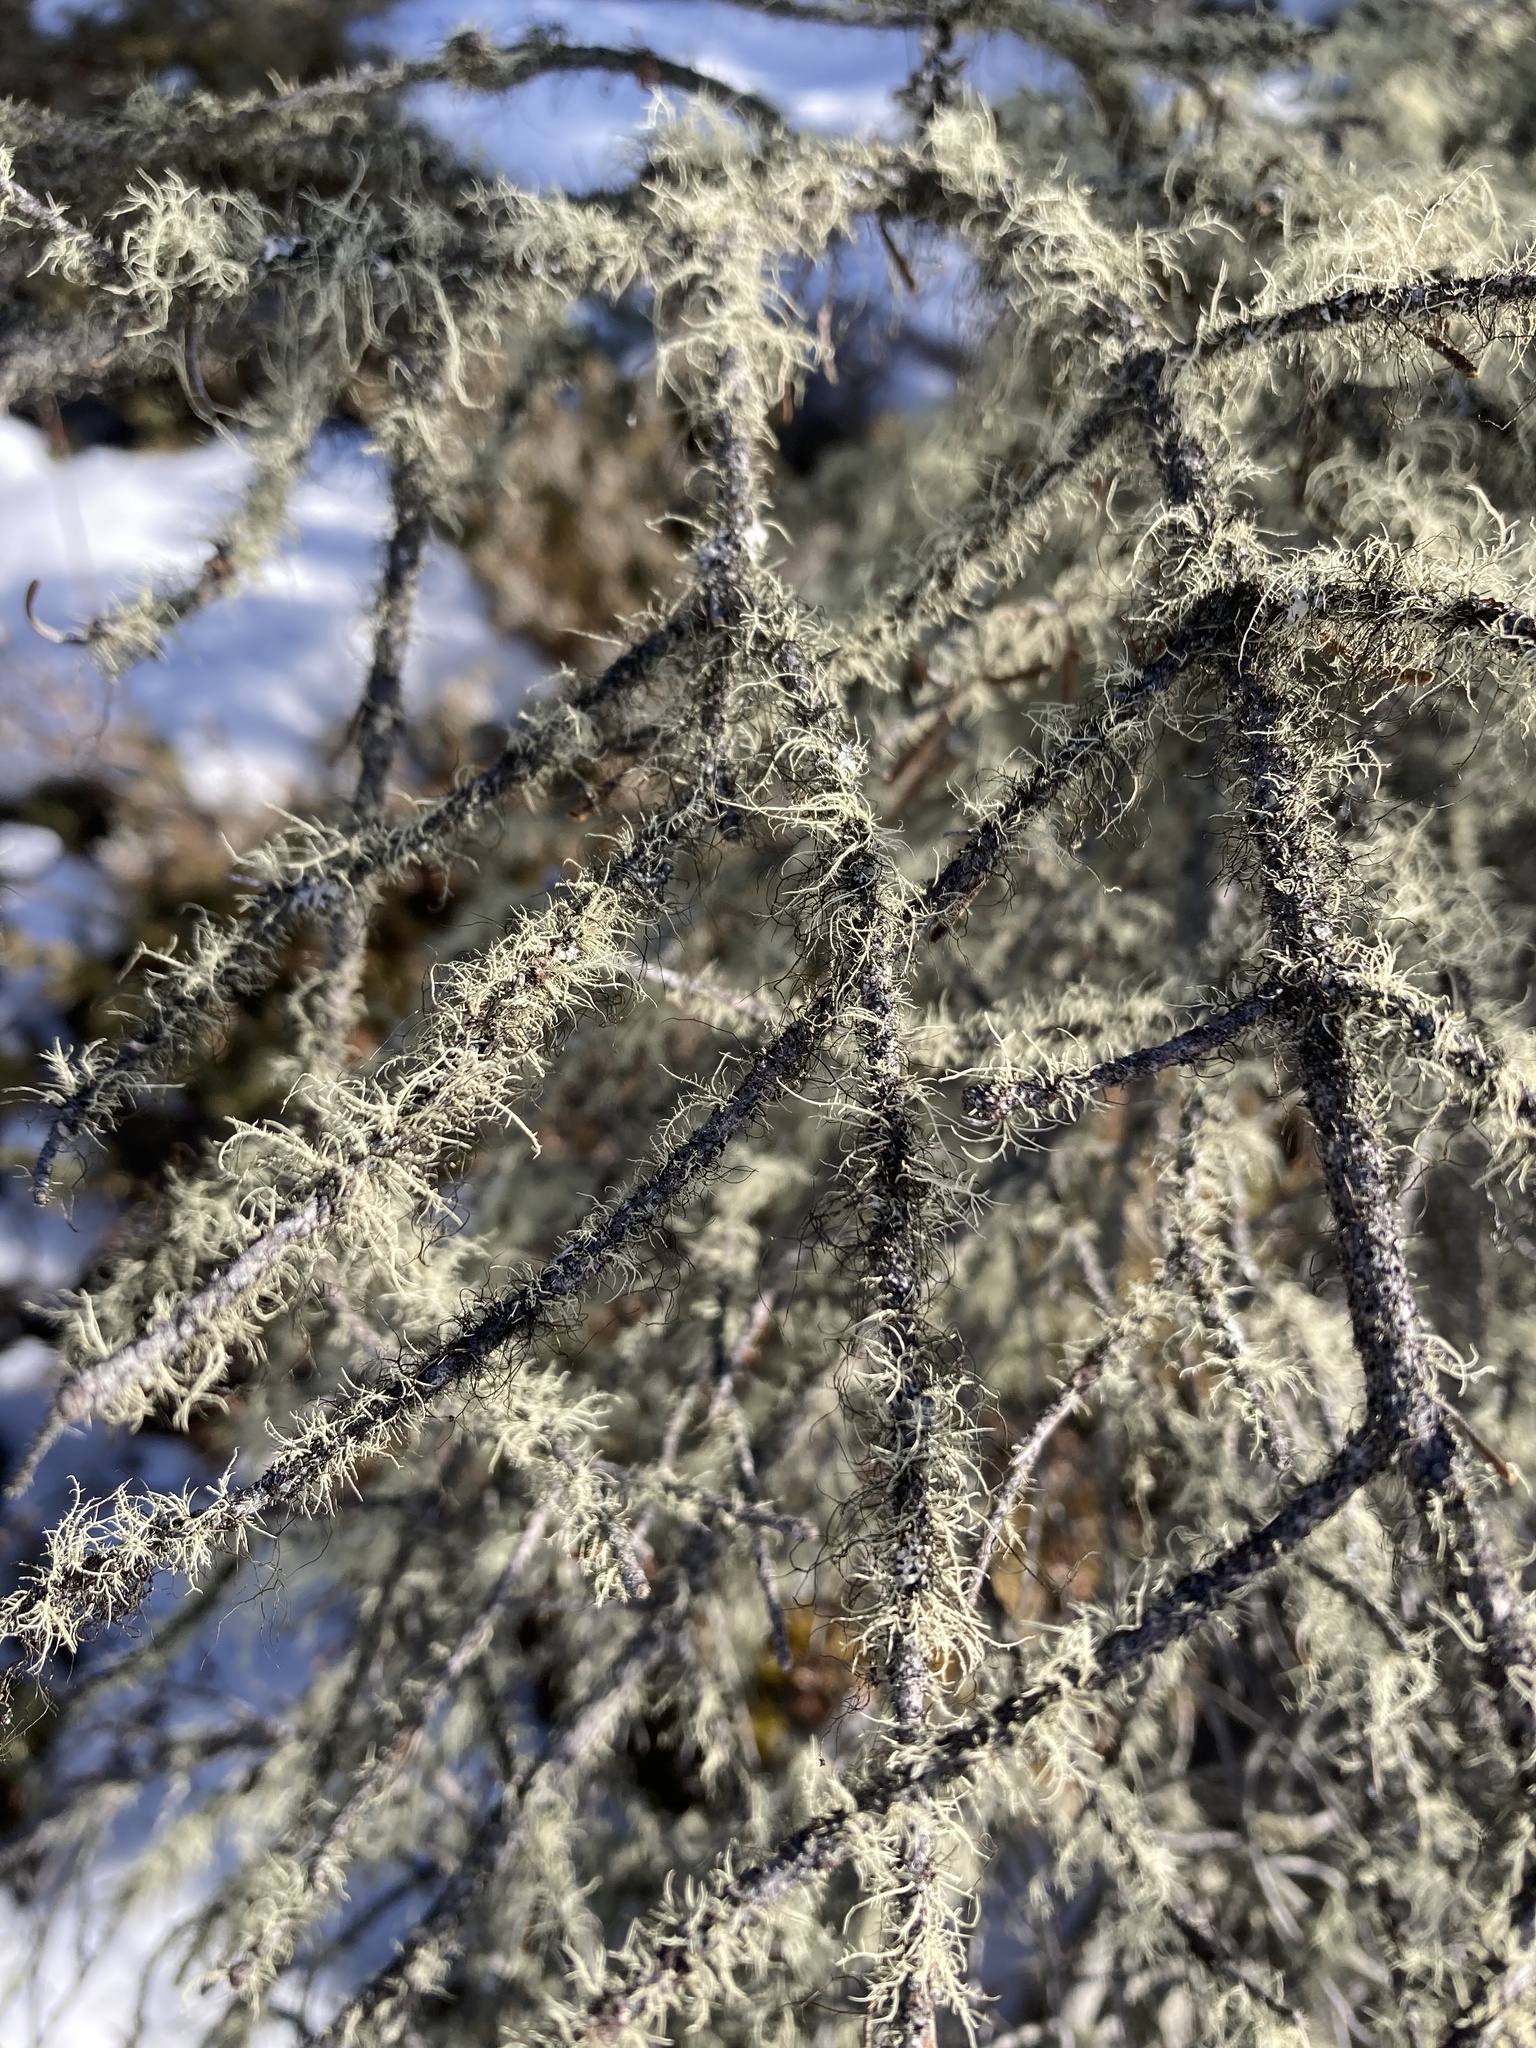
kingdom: Fungi
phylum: Ascomycota
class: Lecanoromycetes
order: Lecanorales
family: Parmeliaceae
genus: Usnea
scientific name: Usnea hirta
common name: Bristly beard lichen
